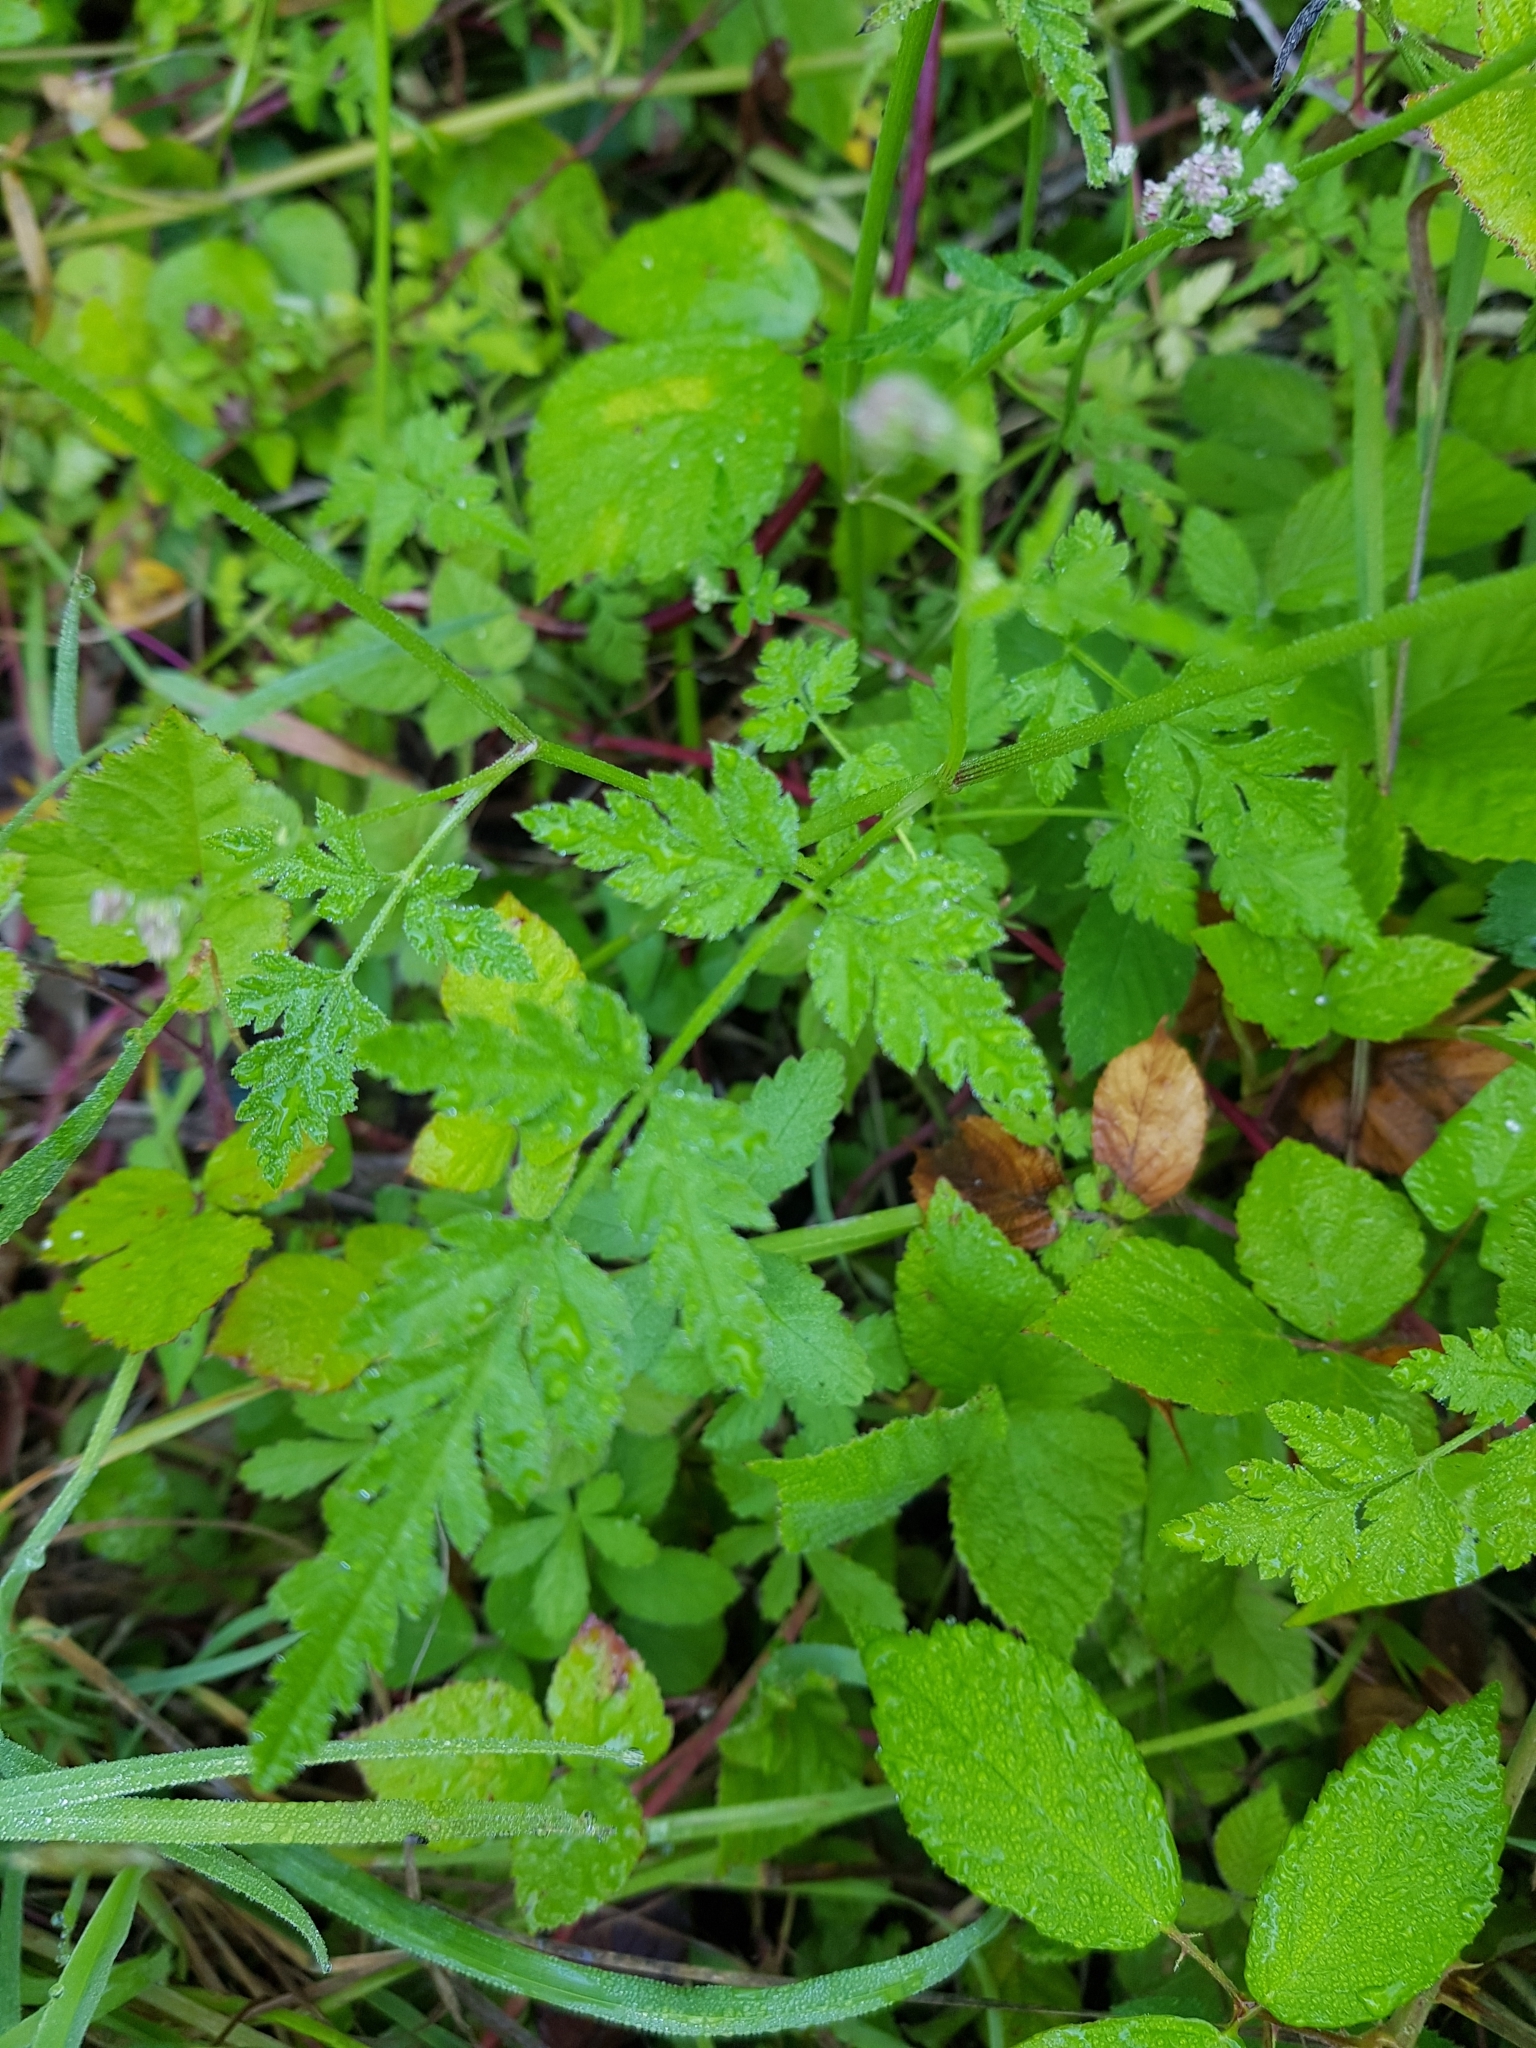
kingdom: Plantae
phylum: Tracheophyta
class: Magnoliopsida
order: Apiales
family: Apiaceae
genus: Torilis
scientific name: Torilis japonica
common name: Upright hedge-parsley
